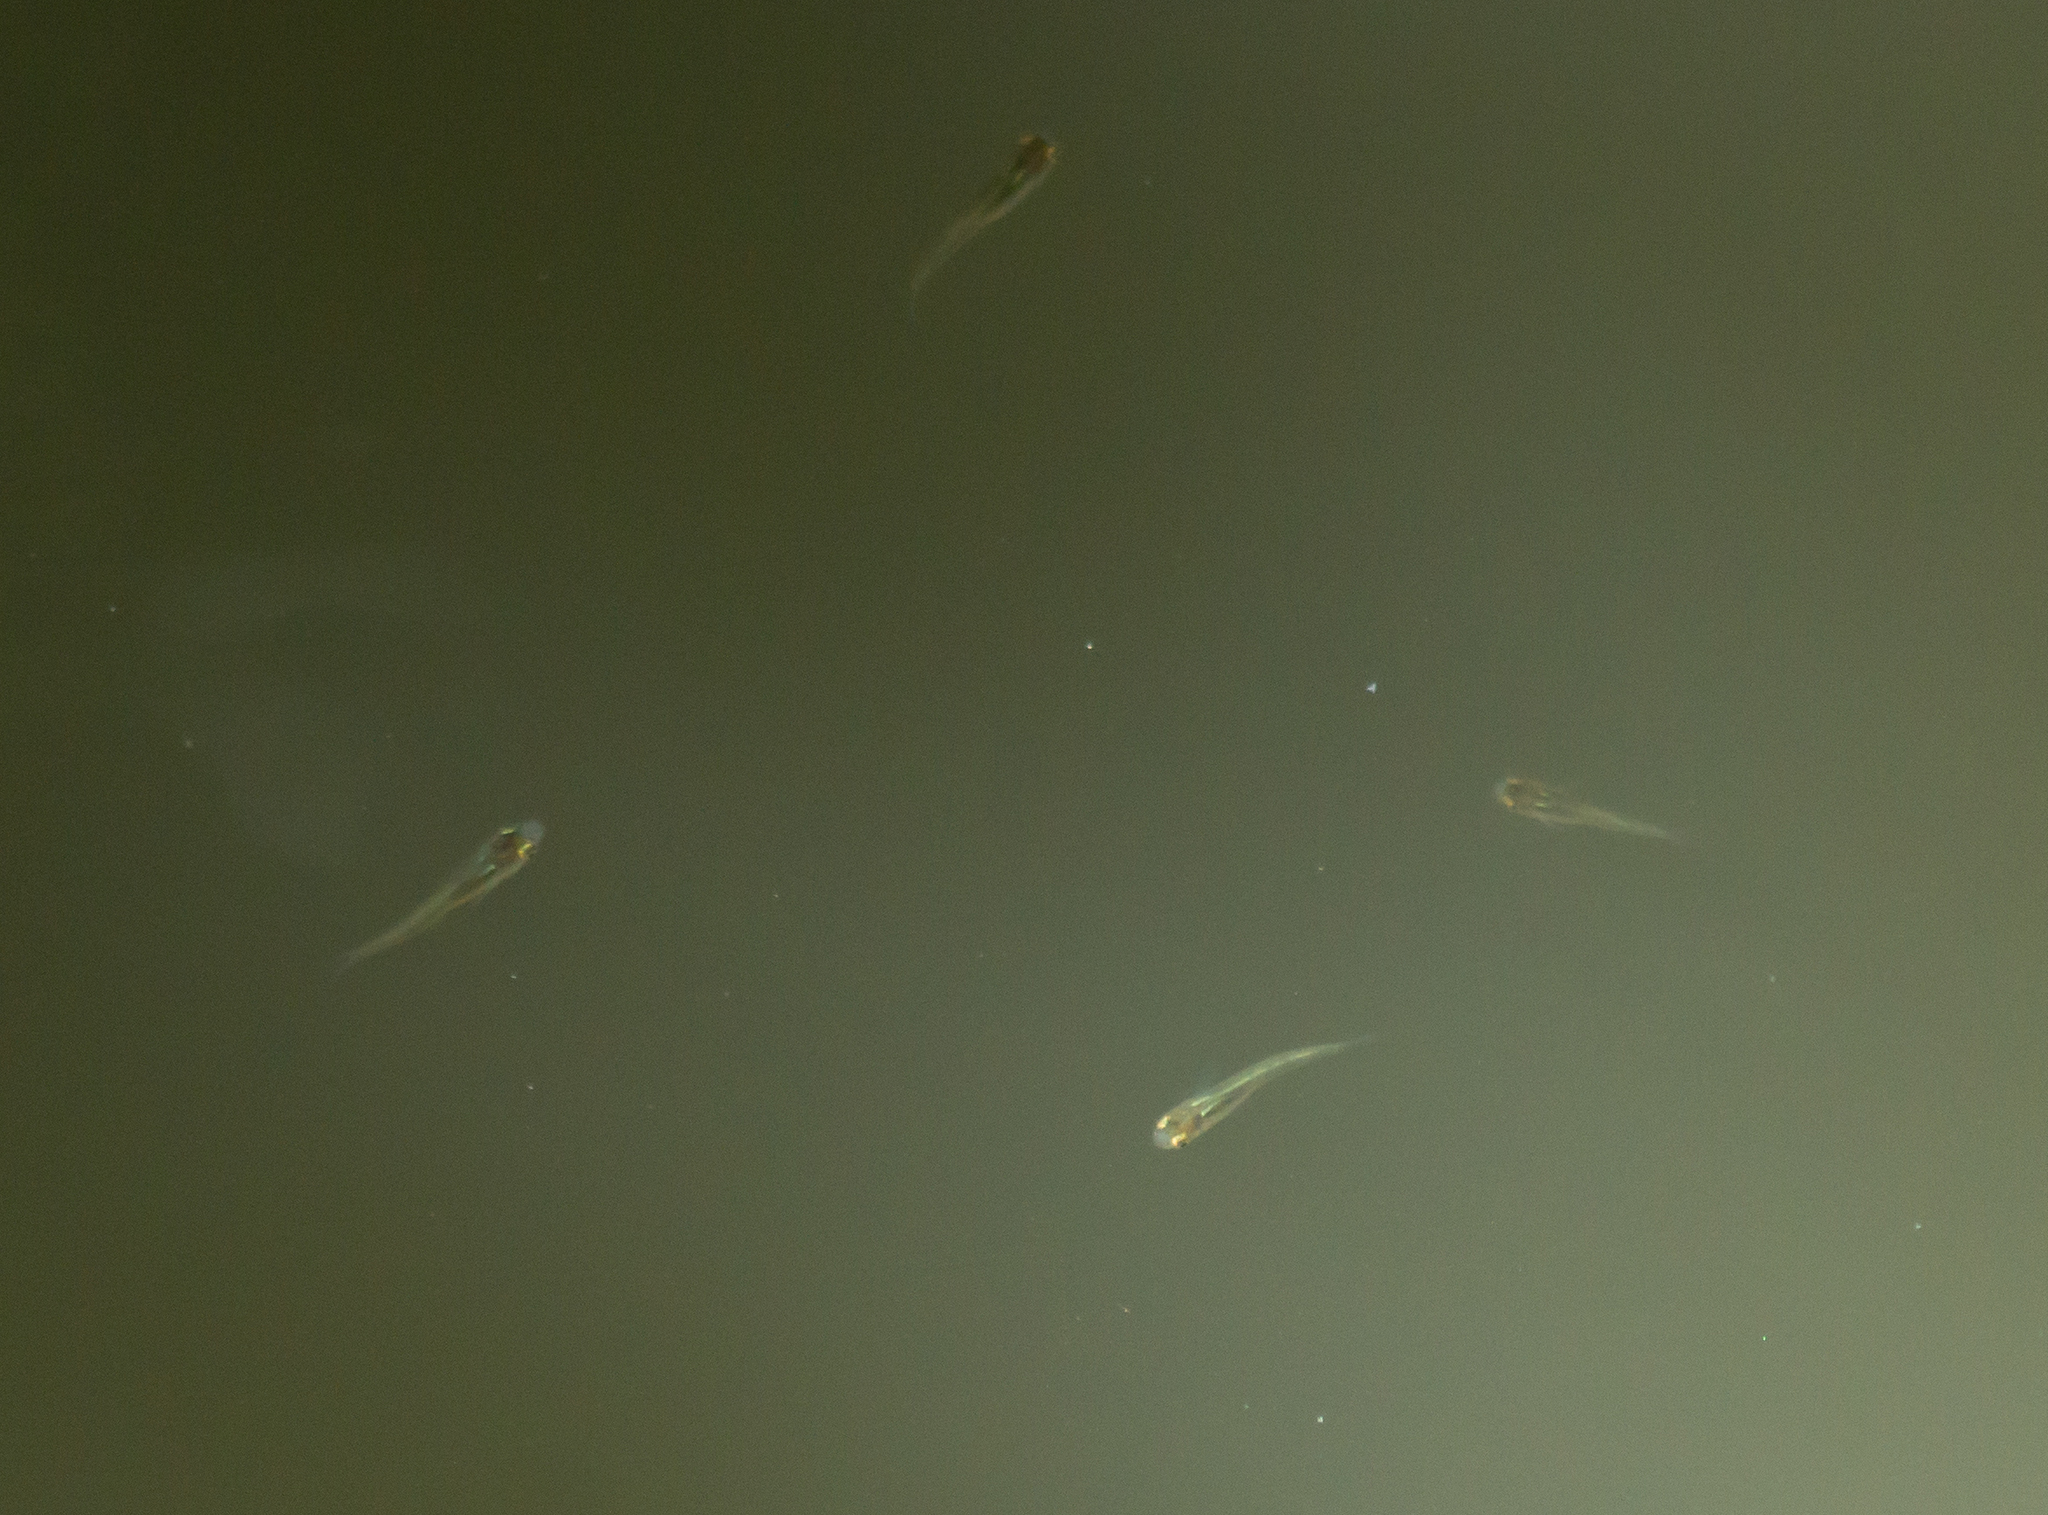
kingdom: Animalia
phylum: Chordata
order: Cyprinodontiformes
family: Poeciliidae
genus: Gambusia
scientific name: Gambusia holbrooki
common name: Eastern mosquitofish
